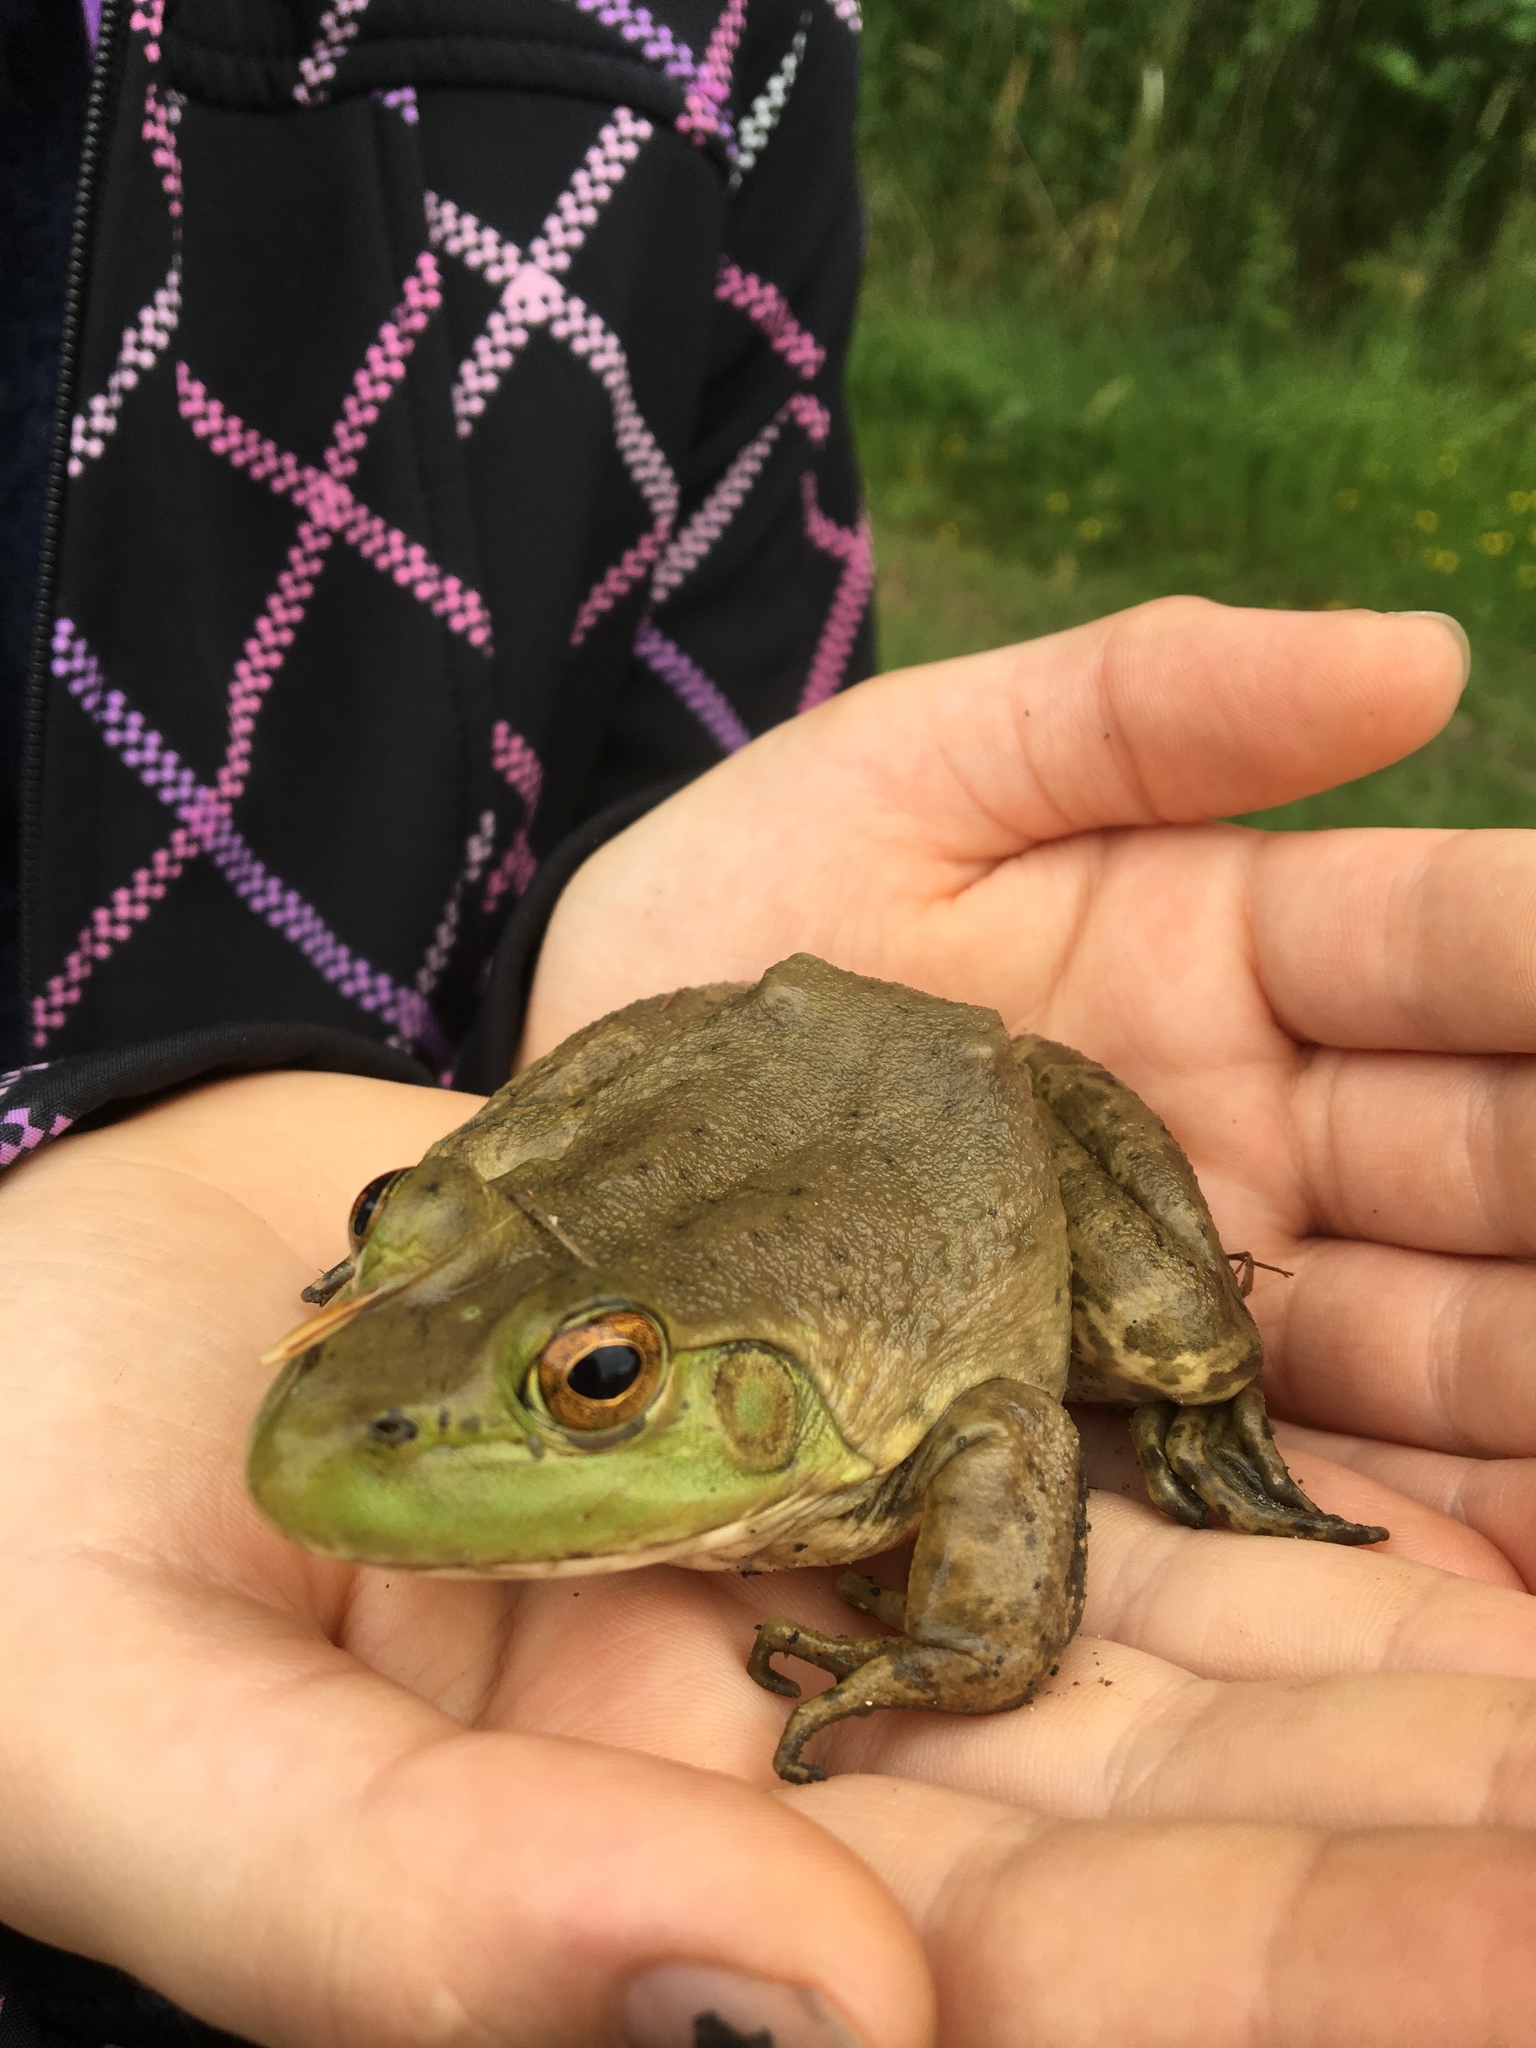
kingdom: Animalia
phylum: Chordata
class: Amphibia
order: Anura
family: Ranidae
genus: Lithobates
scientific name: Lithobates catesbeianus
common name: American bullfrog
